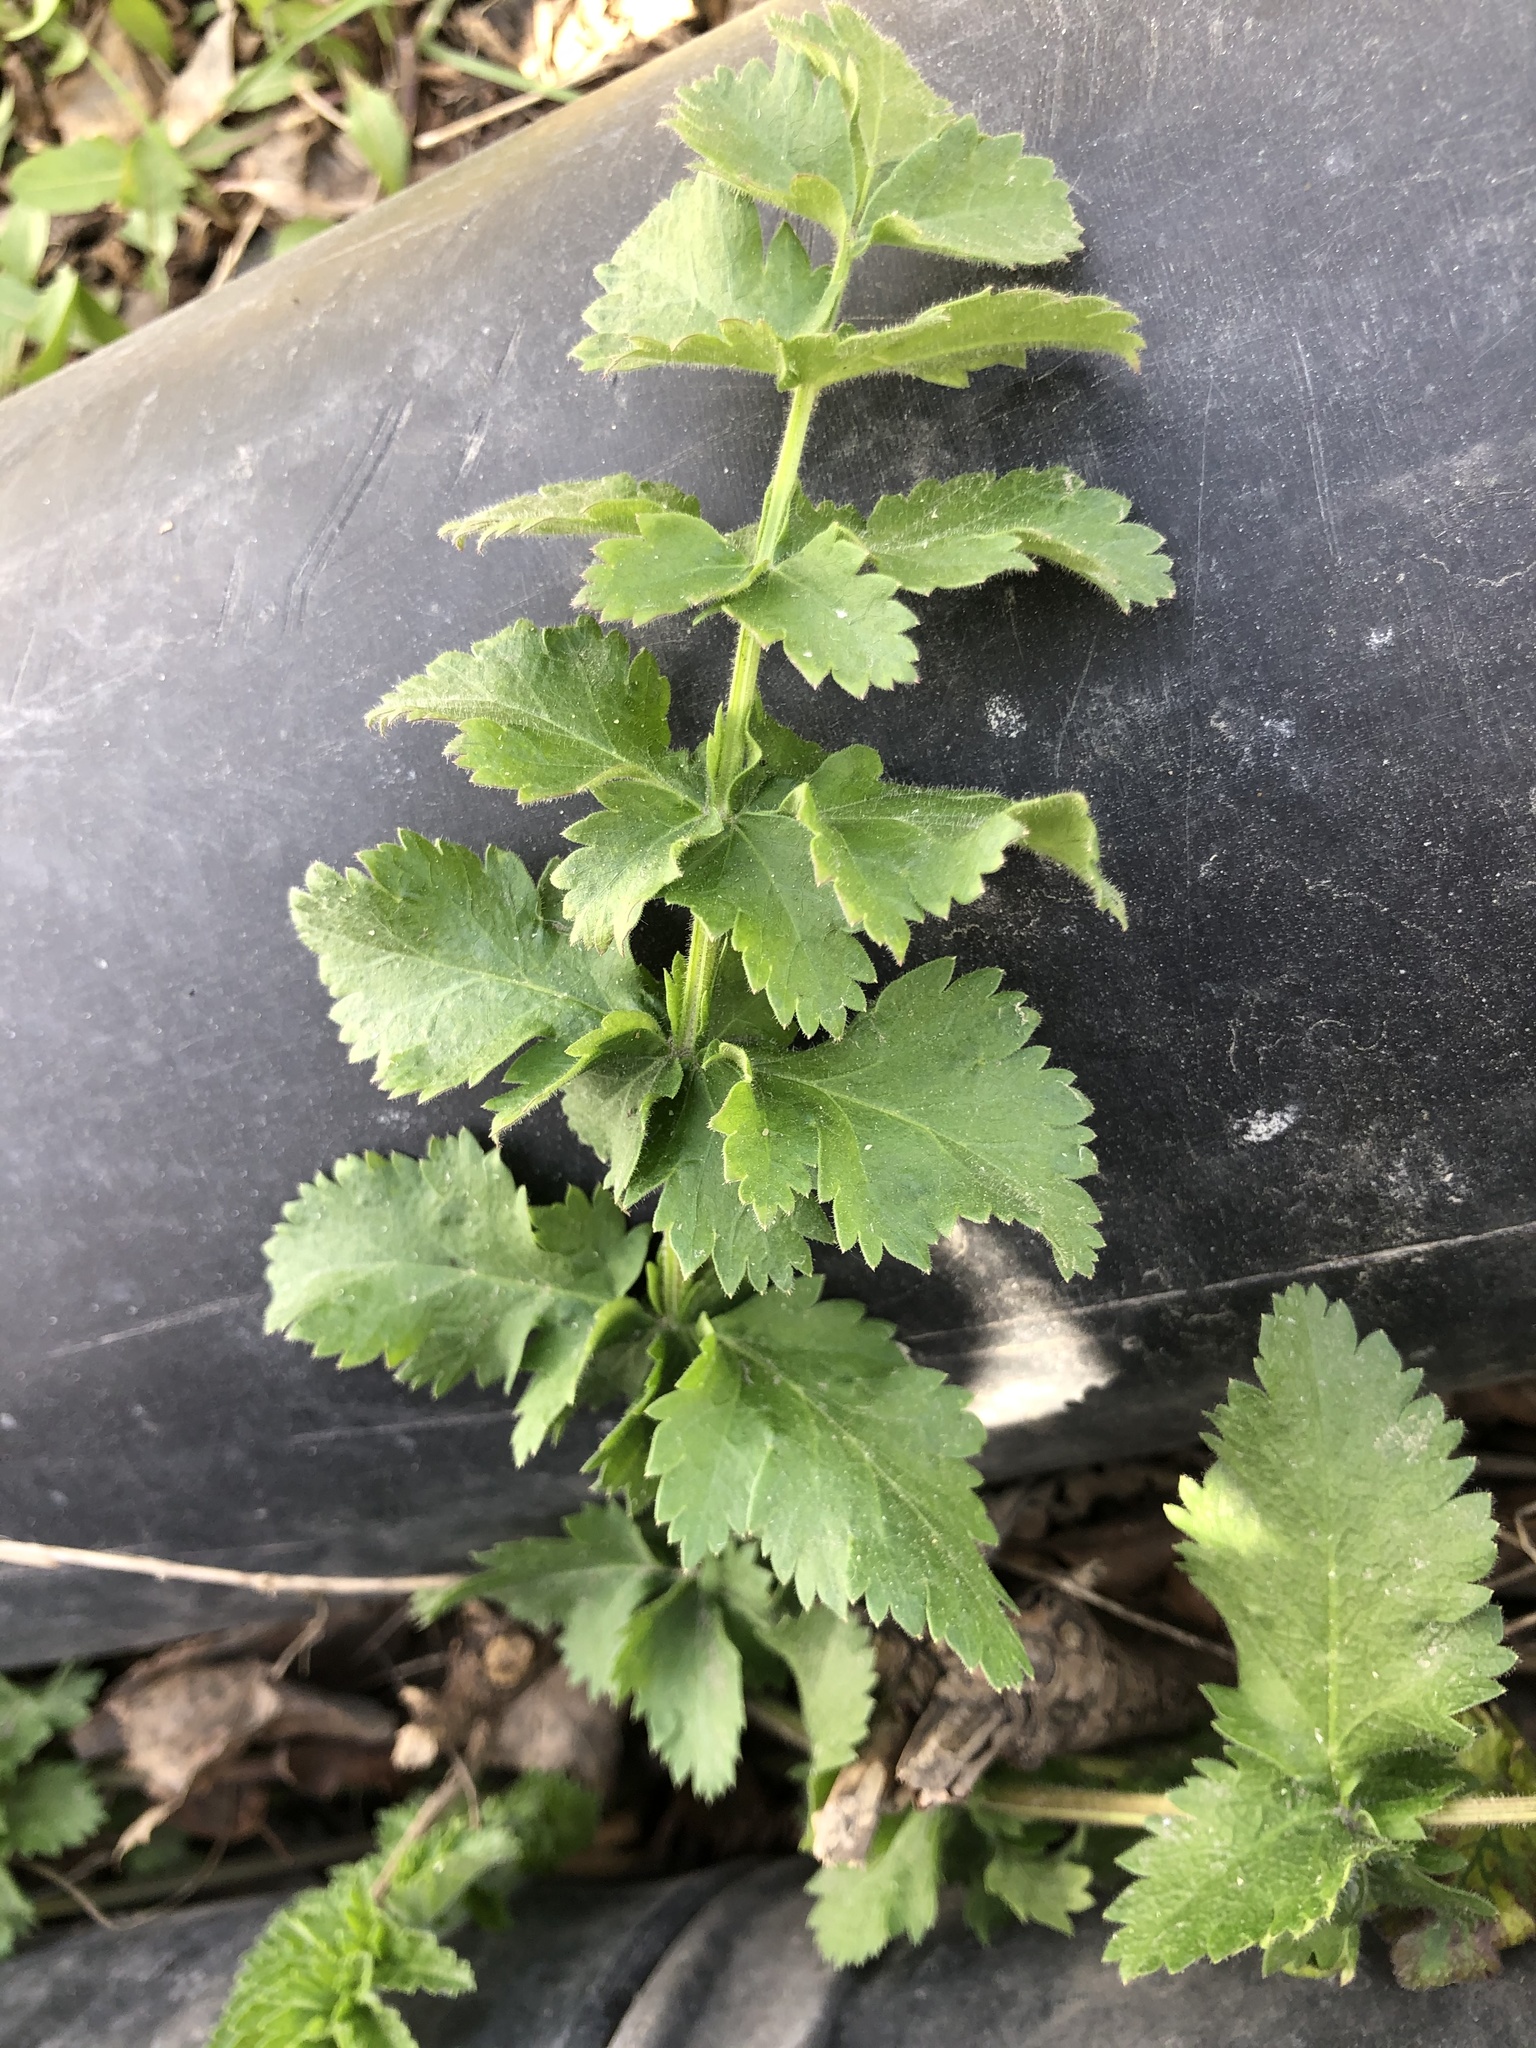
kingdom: Plantae
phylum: Tracheophyta
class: Magnoliopsida
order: Apiales
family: Apiaceae
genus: Pastinaca
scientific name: Pastinaca sativa
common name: Wild parsnip
